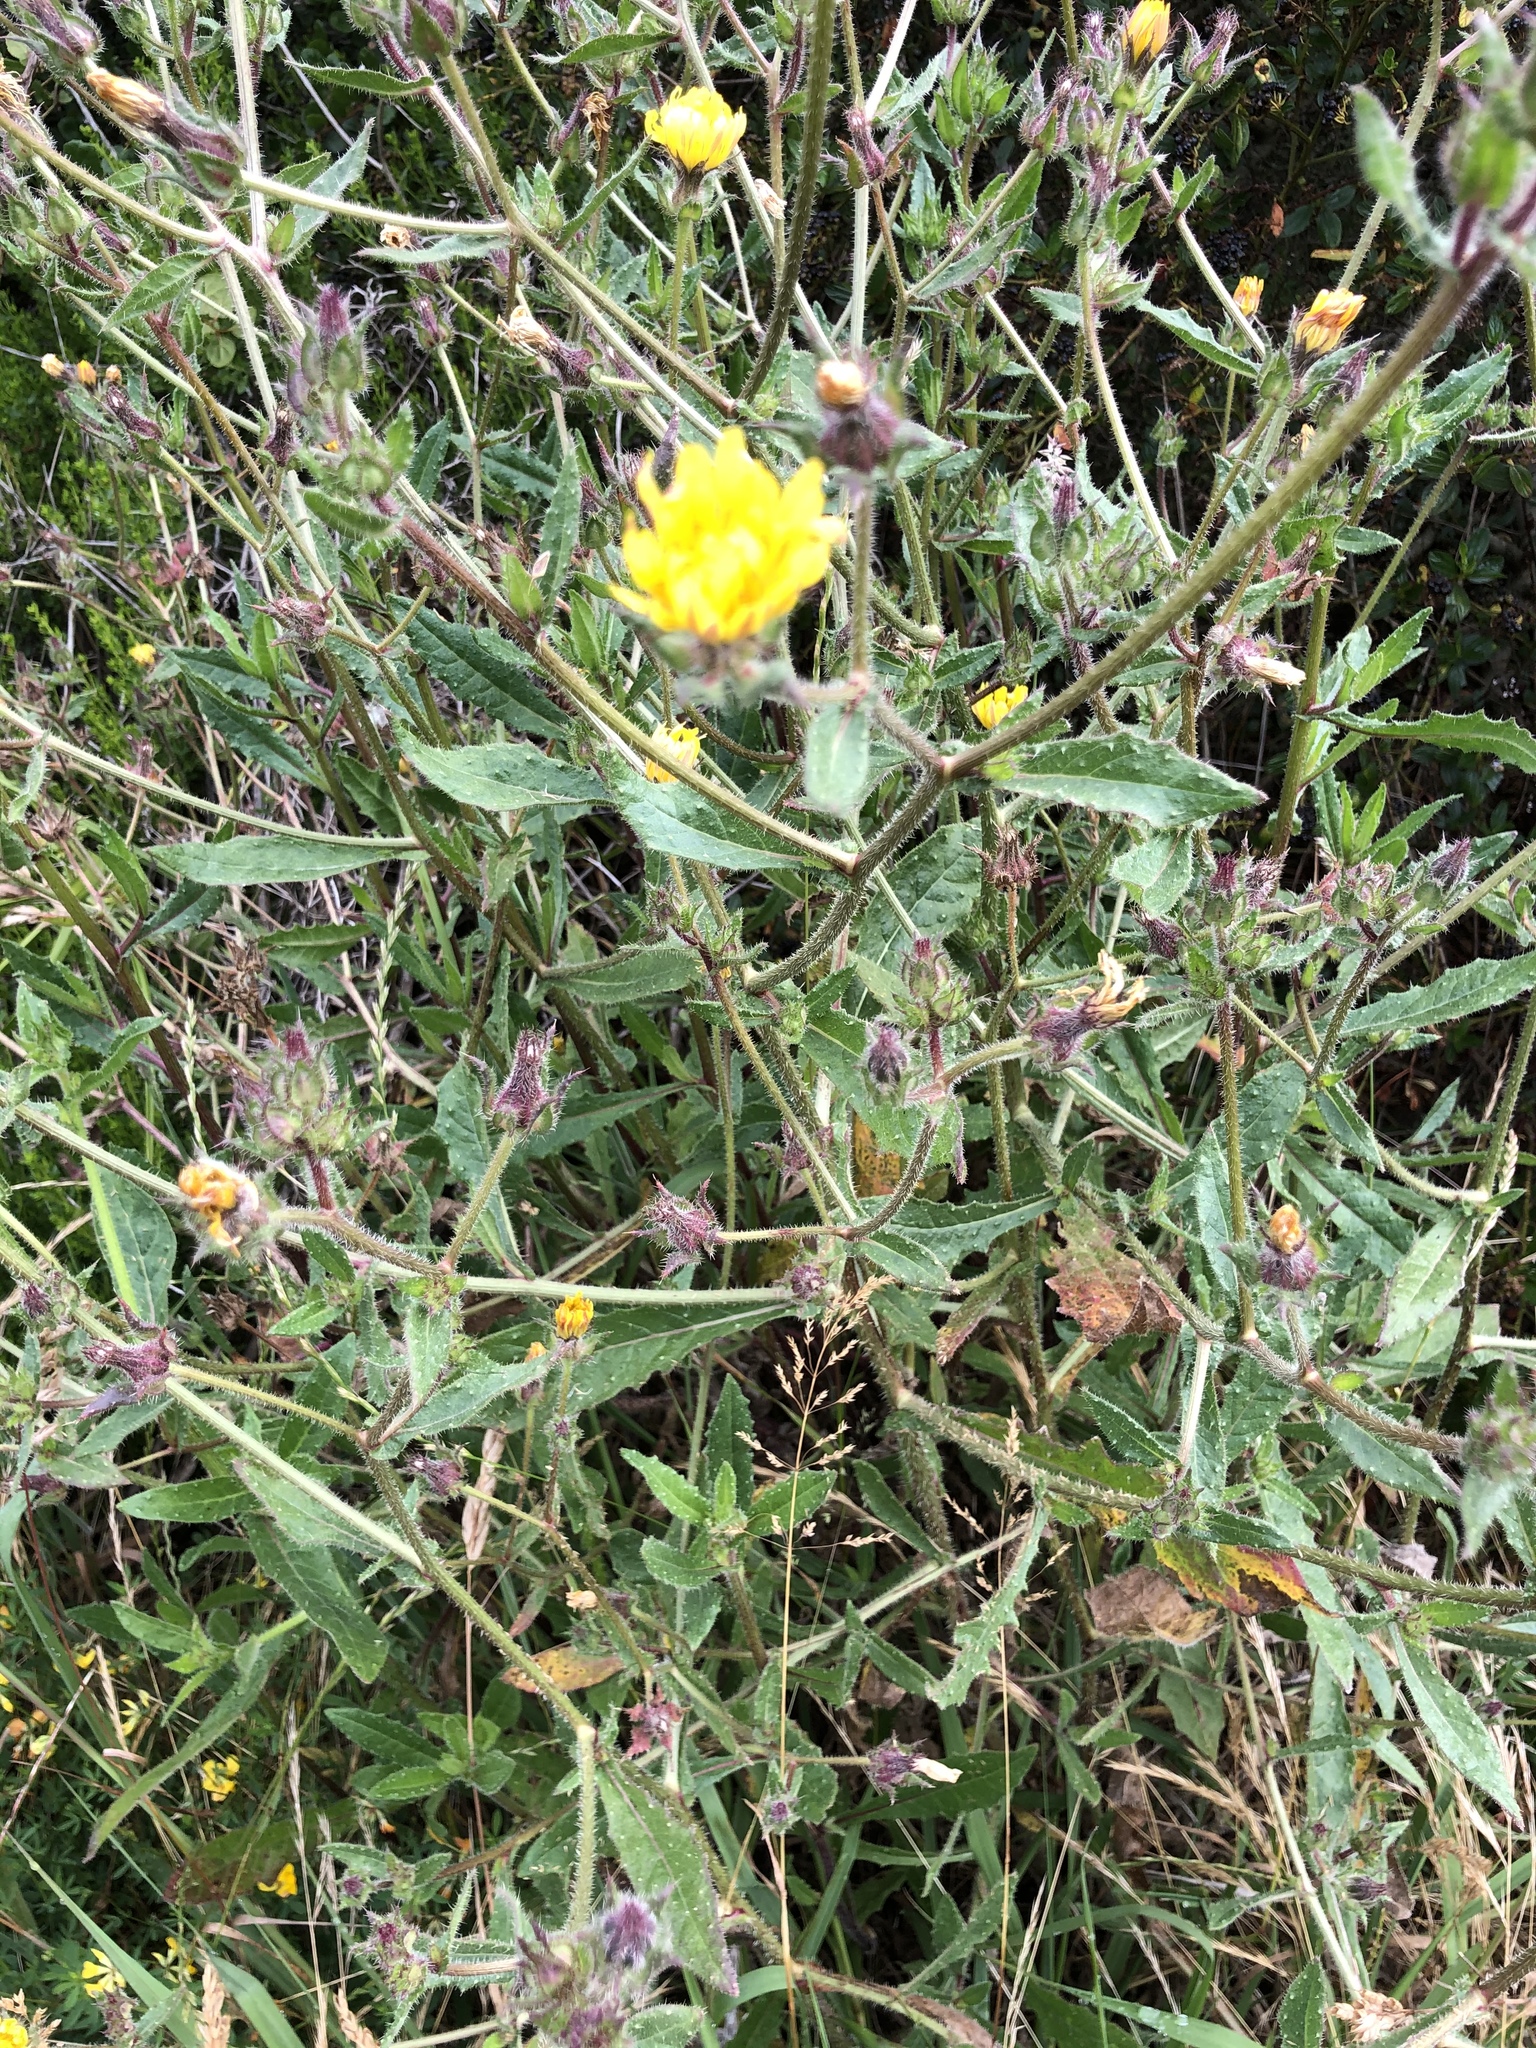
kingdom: Plantae
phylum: Tracheophyta
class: Magnoliopsida
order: Asterales
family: Asteraceae
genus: Helminthotheca
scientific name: Helminthotheca echioides
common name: Ox-tongue
